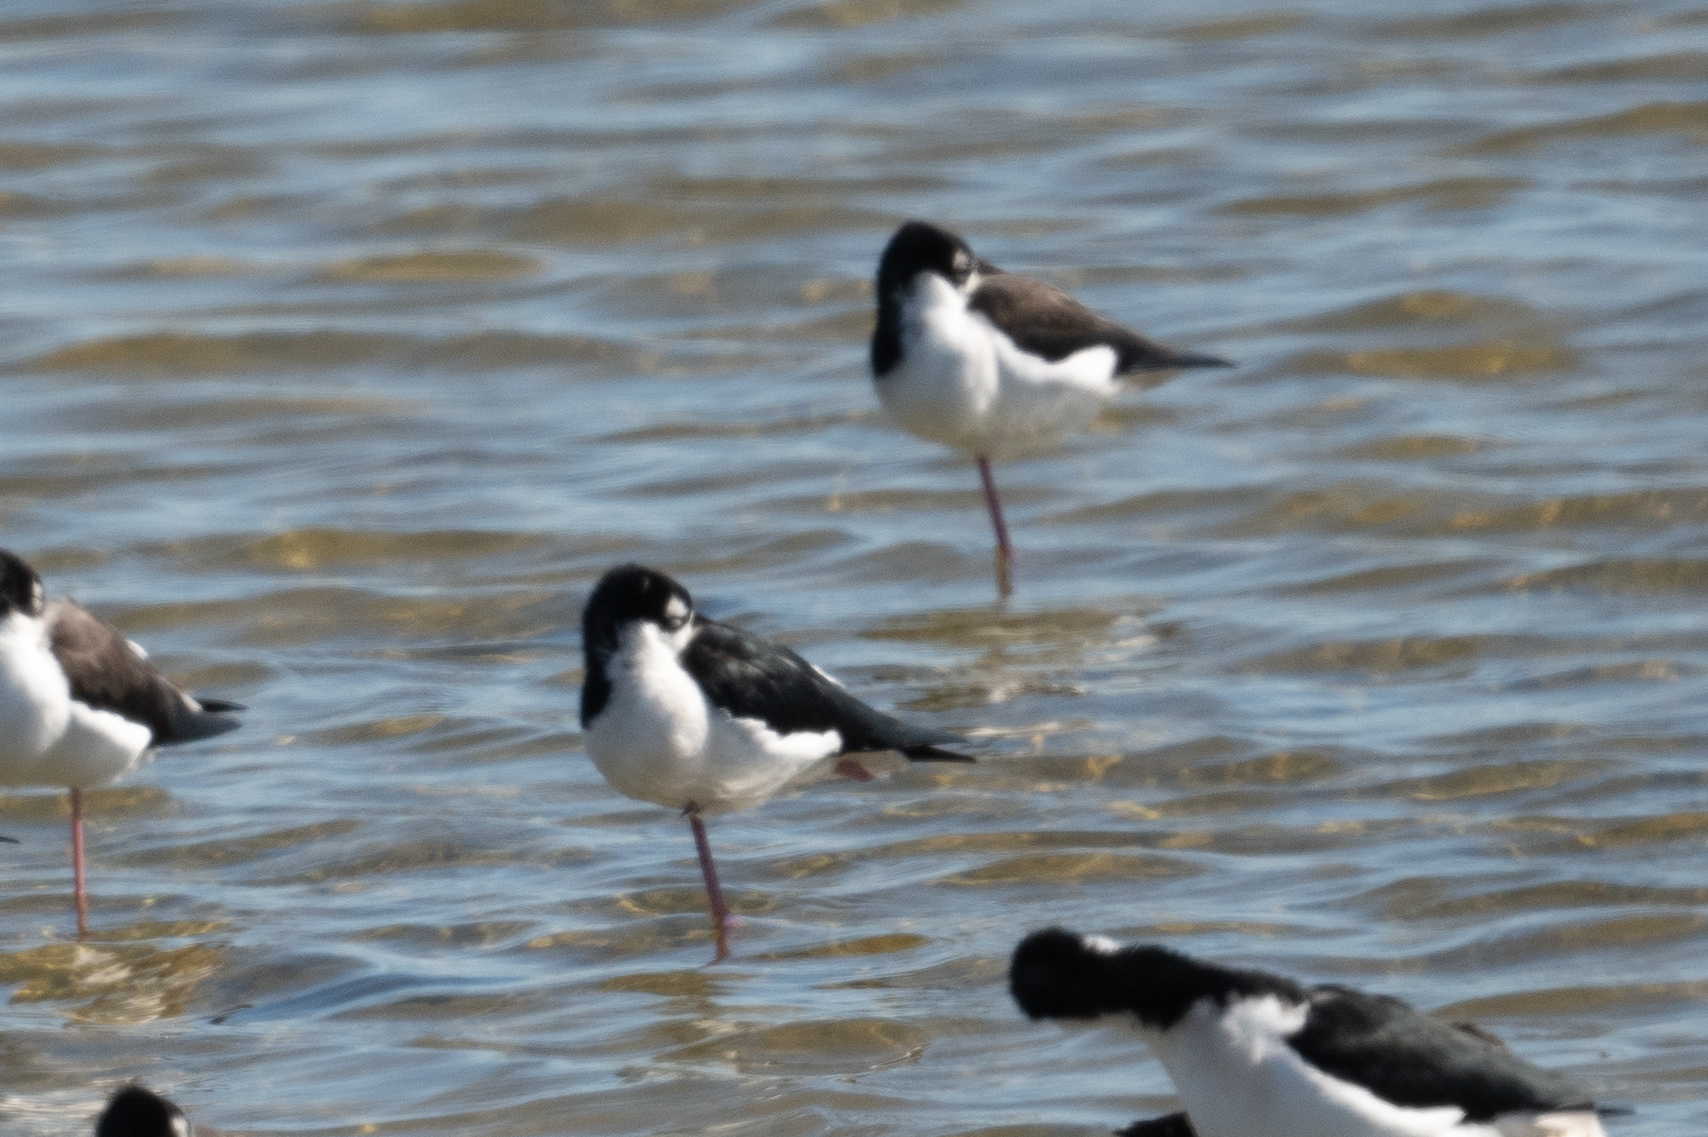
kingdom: Animalia
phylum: Chordata
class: Aves
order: Charadriiformes
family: Recurvirostridae
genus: Himantopus
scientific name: Himantopus mexicanus
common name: Black-necked stilt
